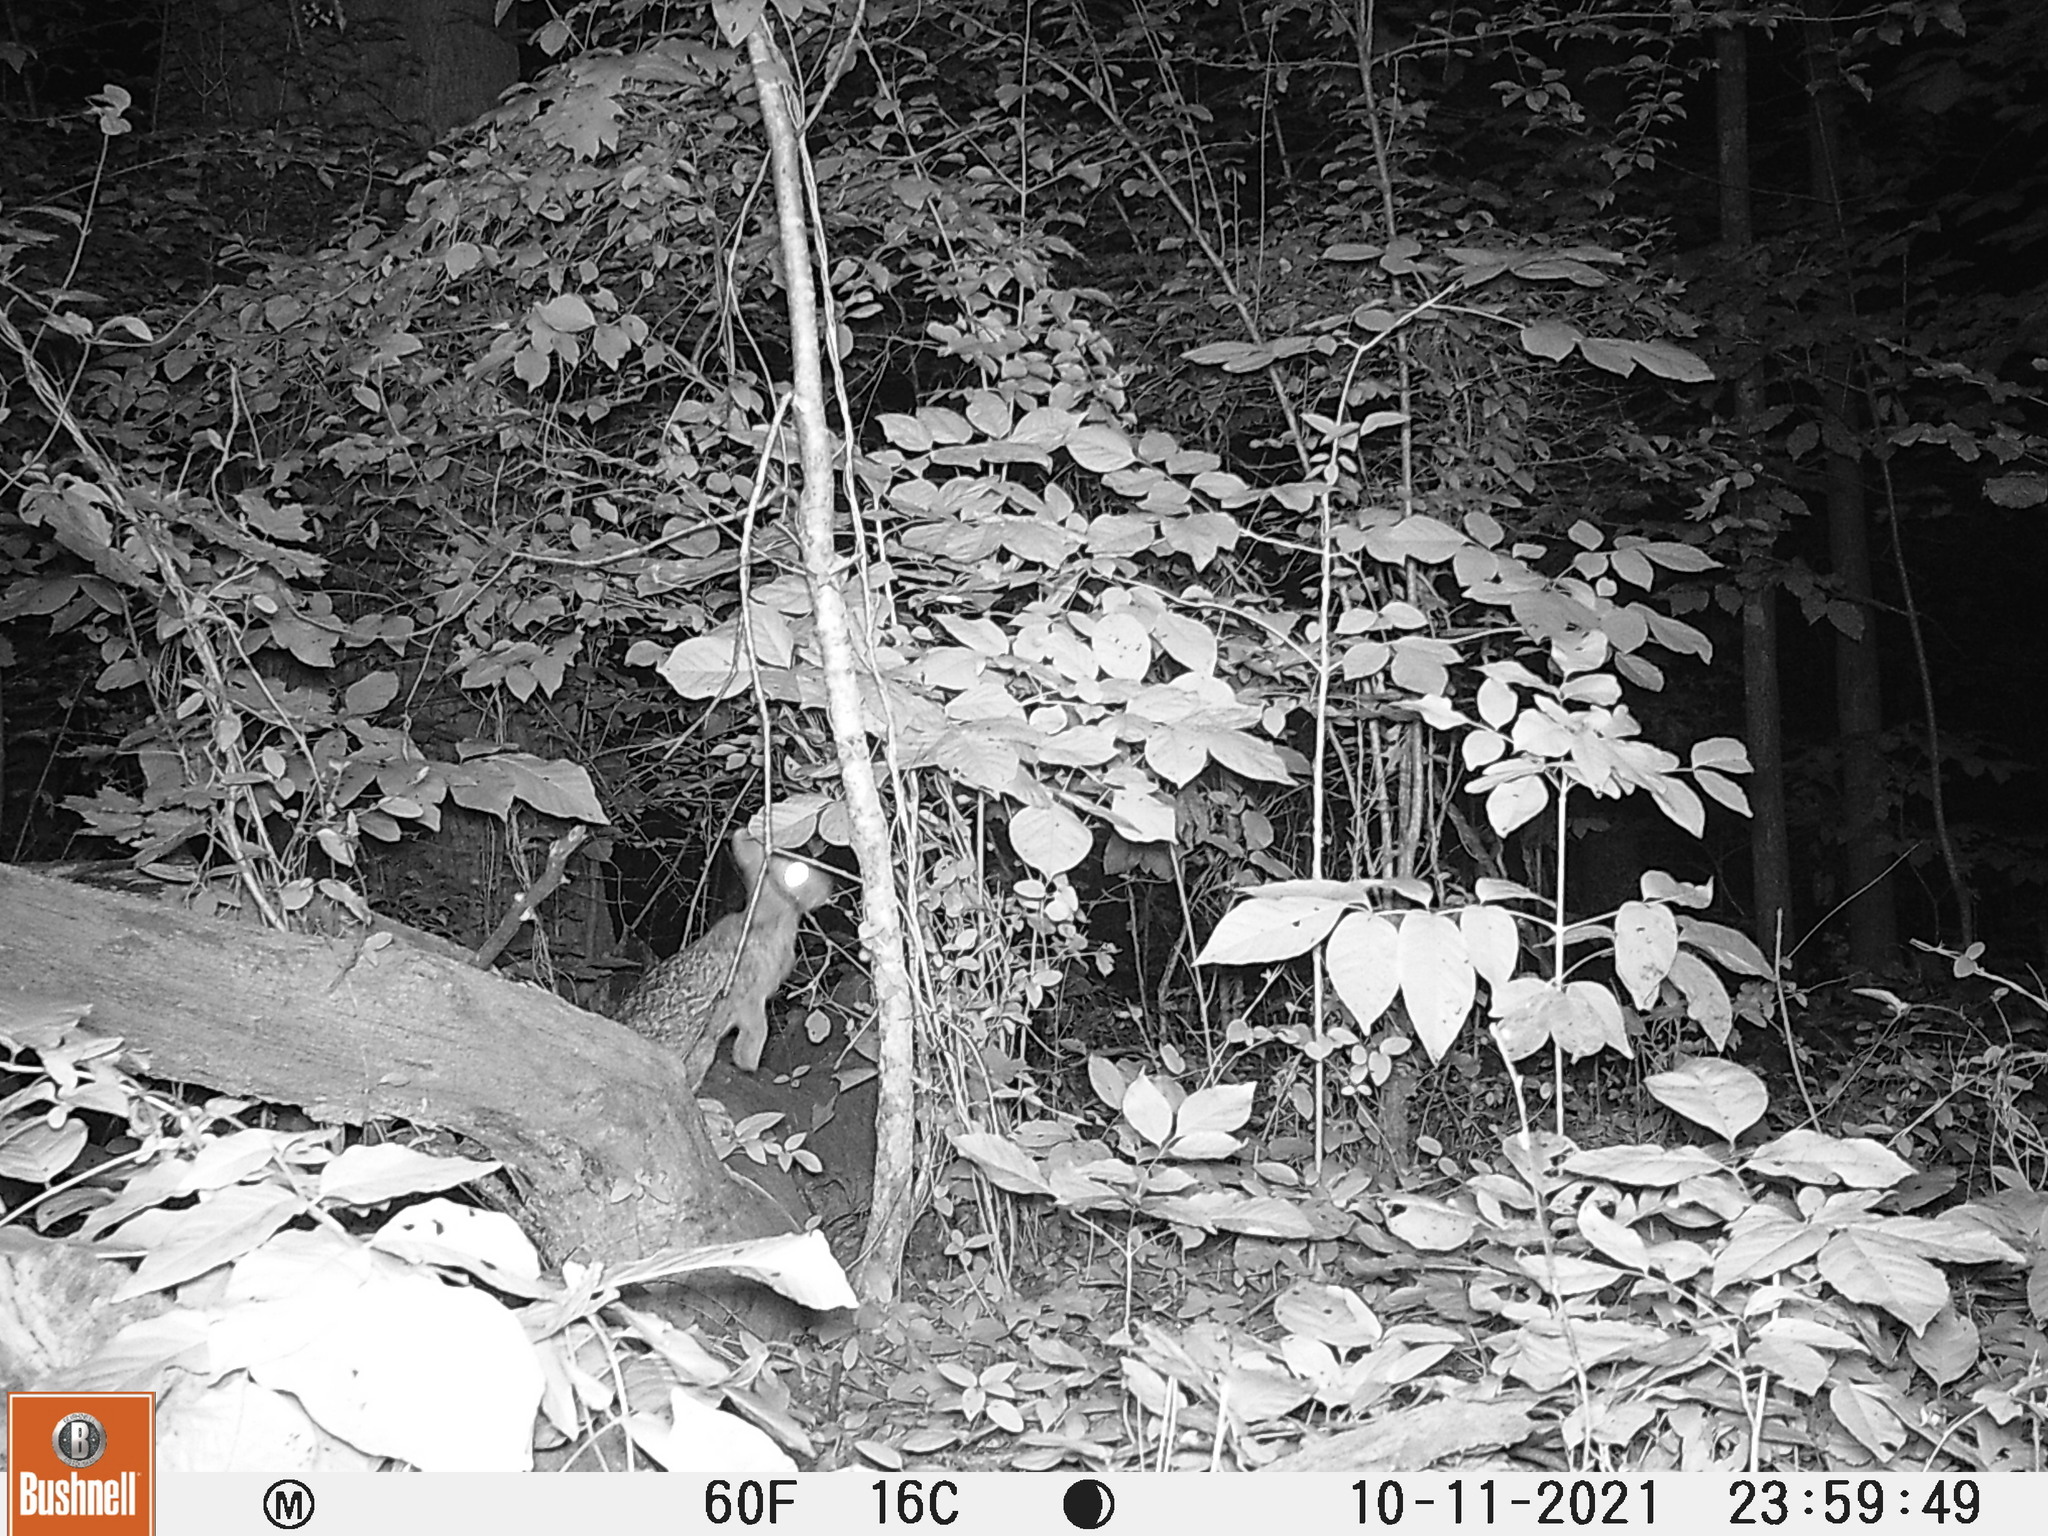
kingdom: Animalia
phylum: Chordata
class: Mammalia
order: Lagomorpha
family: Leporidae
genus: Sylvilagus
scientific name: Sylvilagus floridanus
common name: Eastern cottontail
